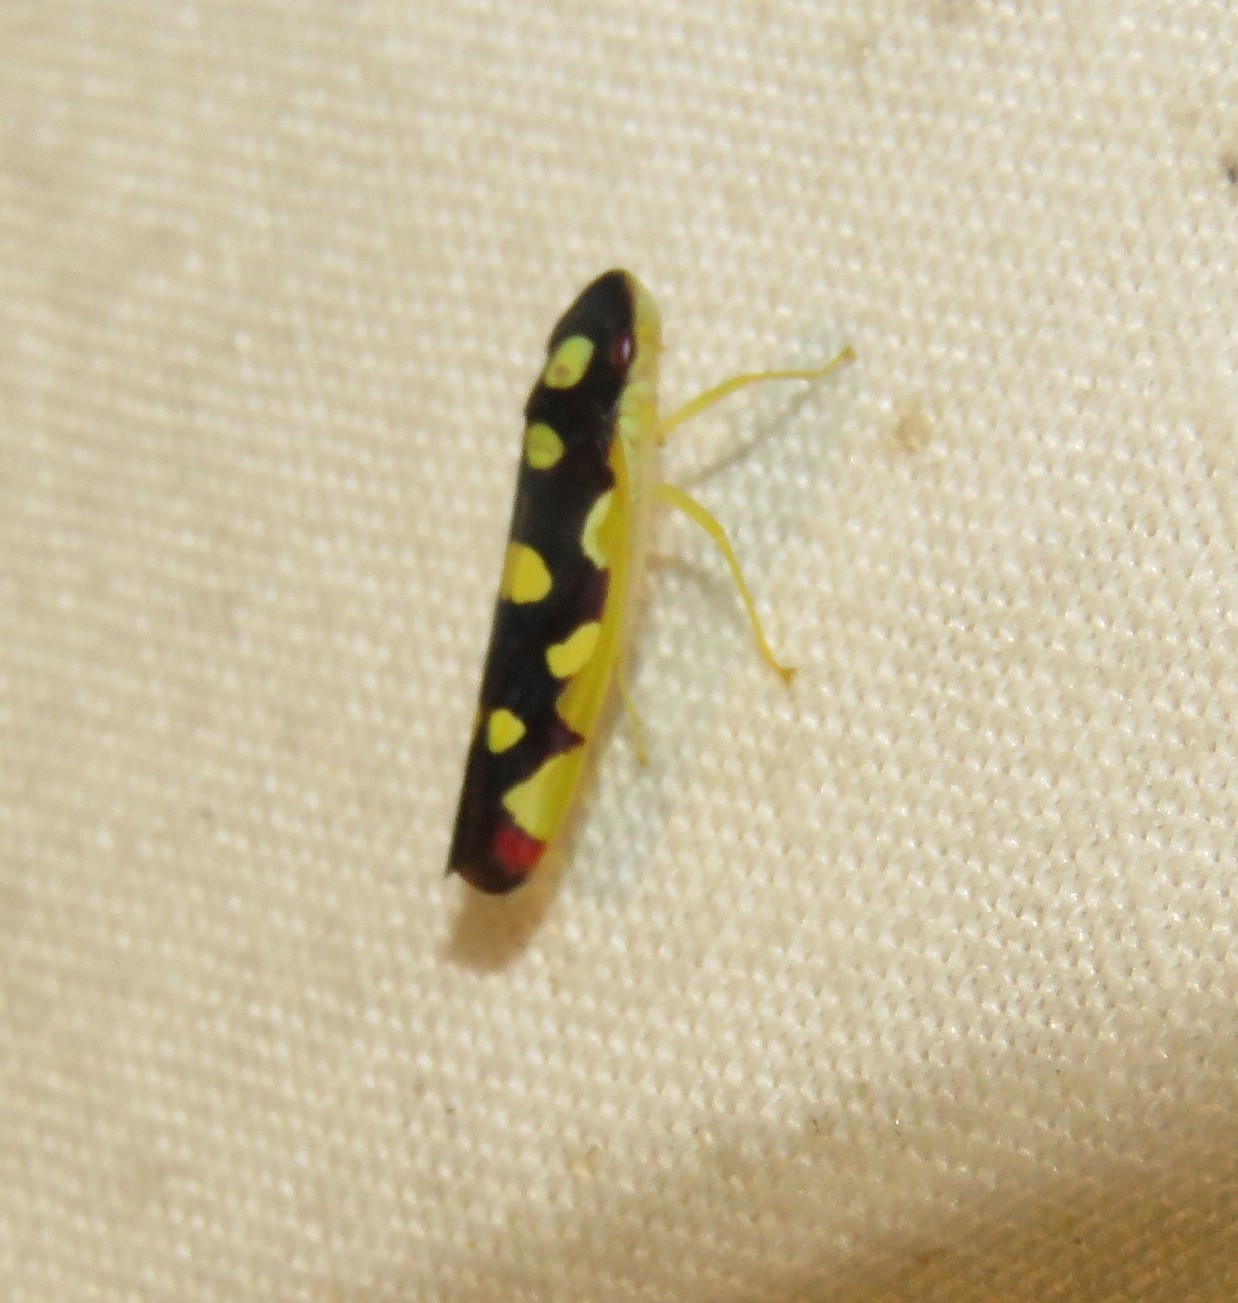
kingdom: Animalia
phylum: Arthropoda
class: Insecta
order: Hemiptera
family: Cicadellidae
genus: Baleja
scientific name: Baleja flavoguttata
